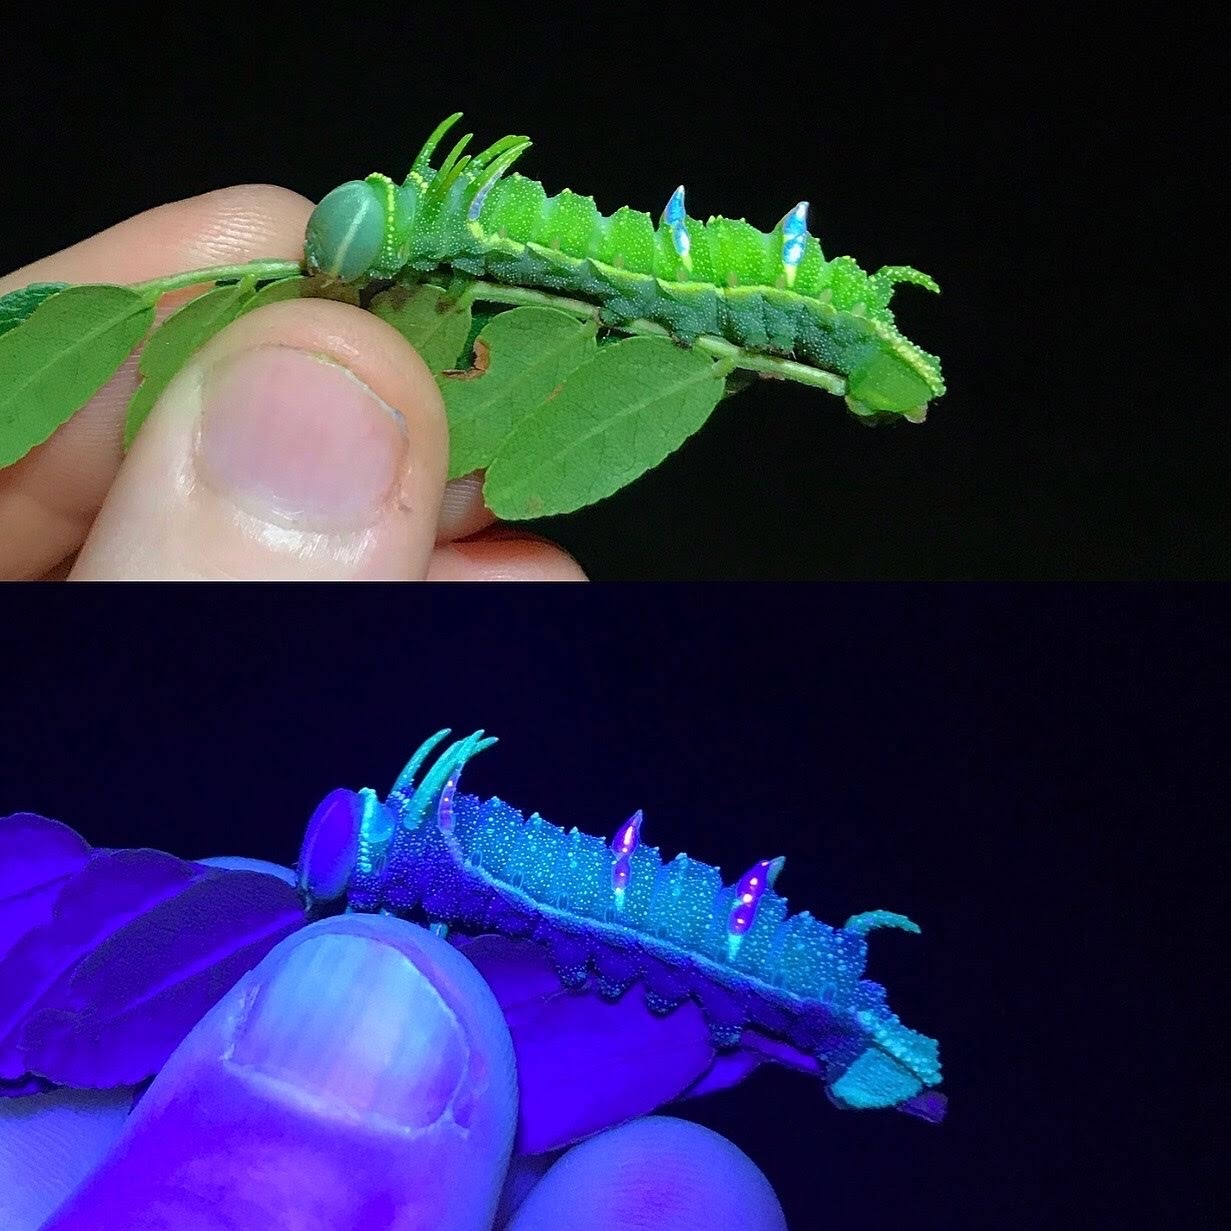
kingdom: Animalia
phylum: Arthropoda
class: Insecta
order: Lepidoptera
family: Saturniidae
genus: Syssphinx
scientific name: Syssphinx bisecta
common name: Bisected honey locust moth
